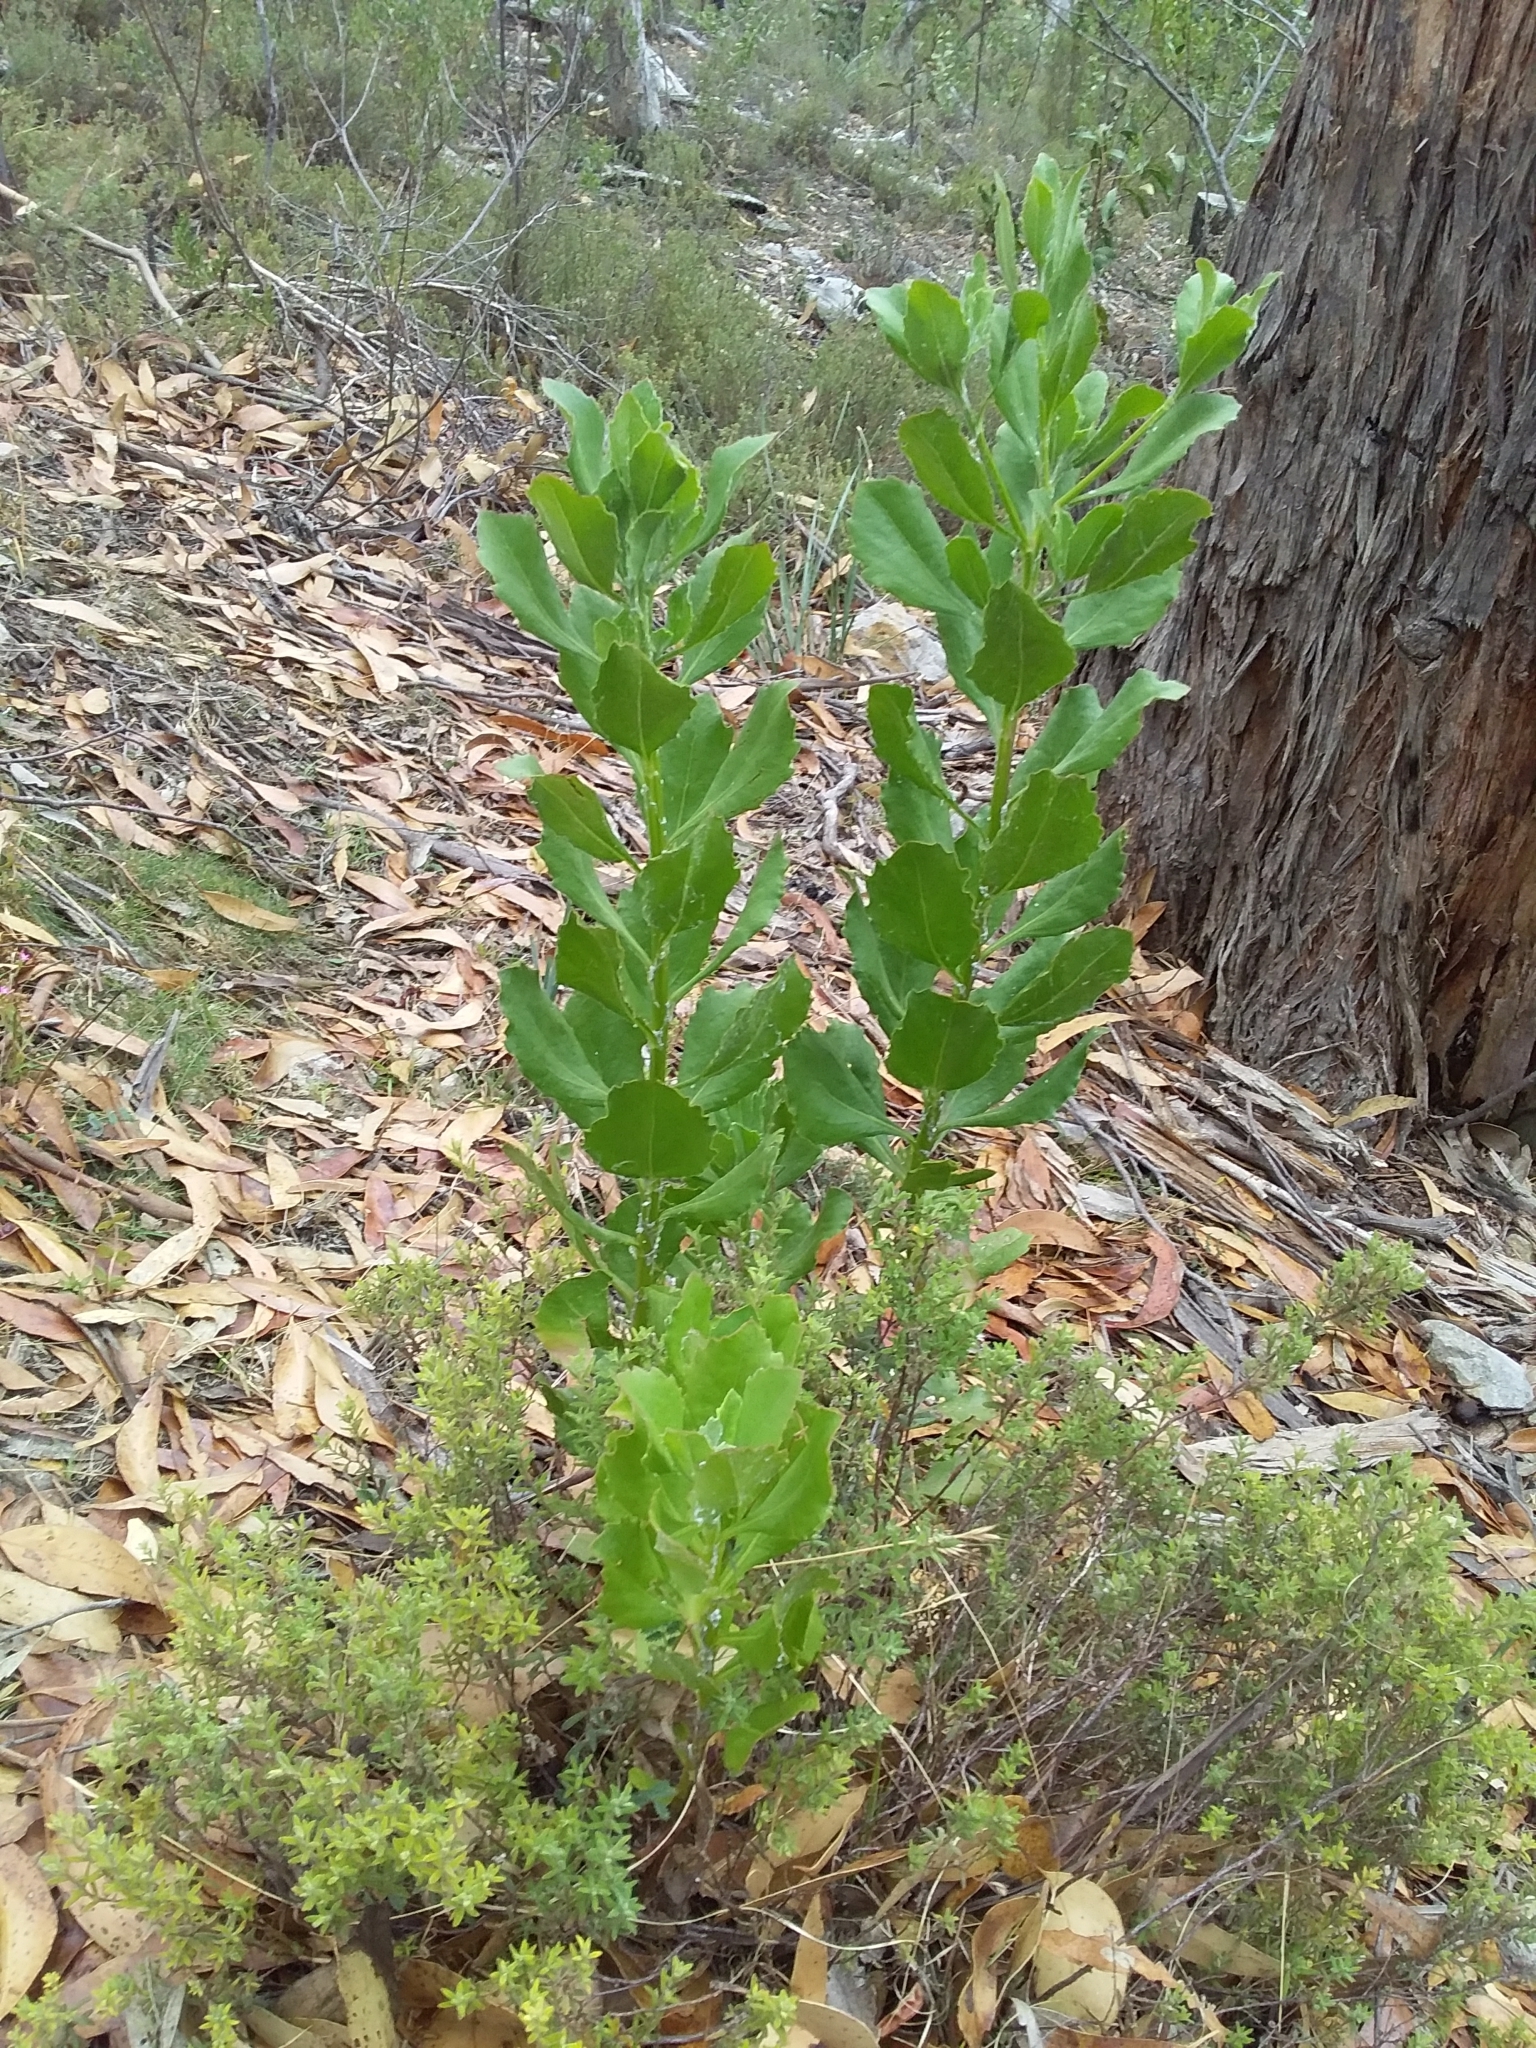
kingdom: Plantae
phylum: Tracheophyta
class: Magnoliopsida
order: Asterales
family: Asteraceae
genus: Osteospermum
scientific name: Osteospermum moniliferum
